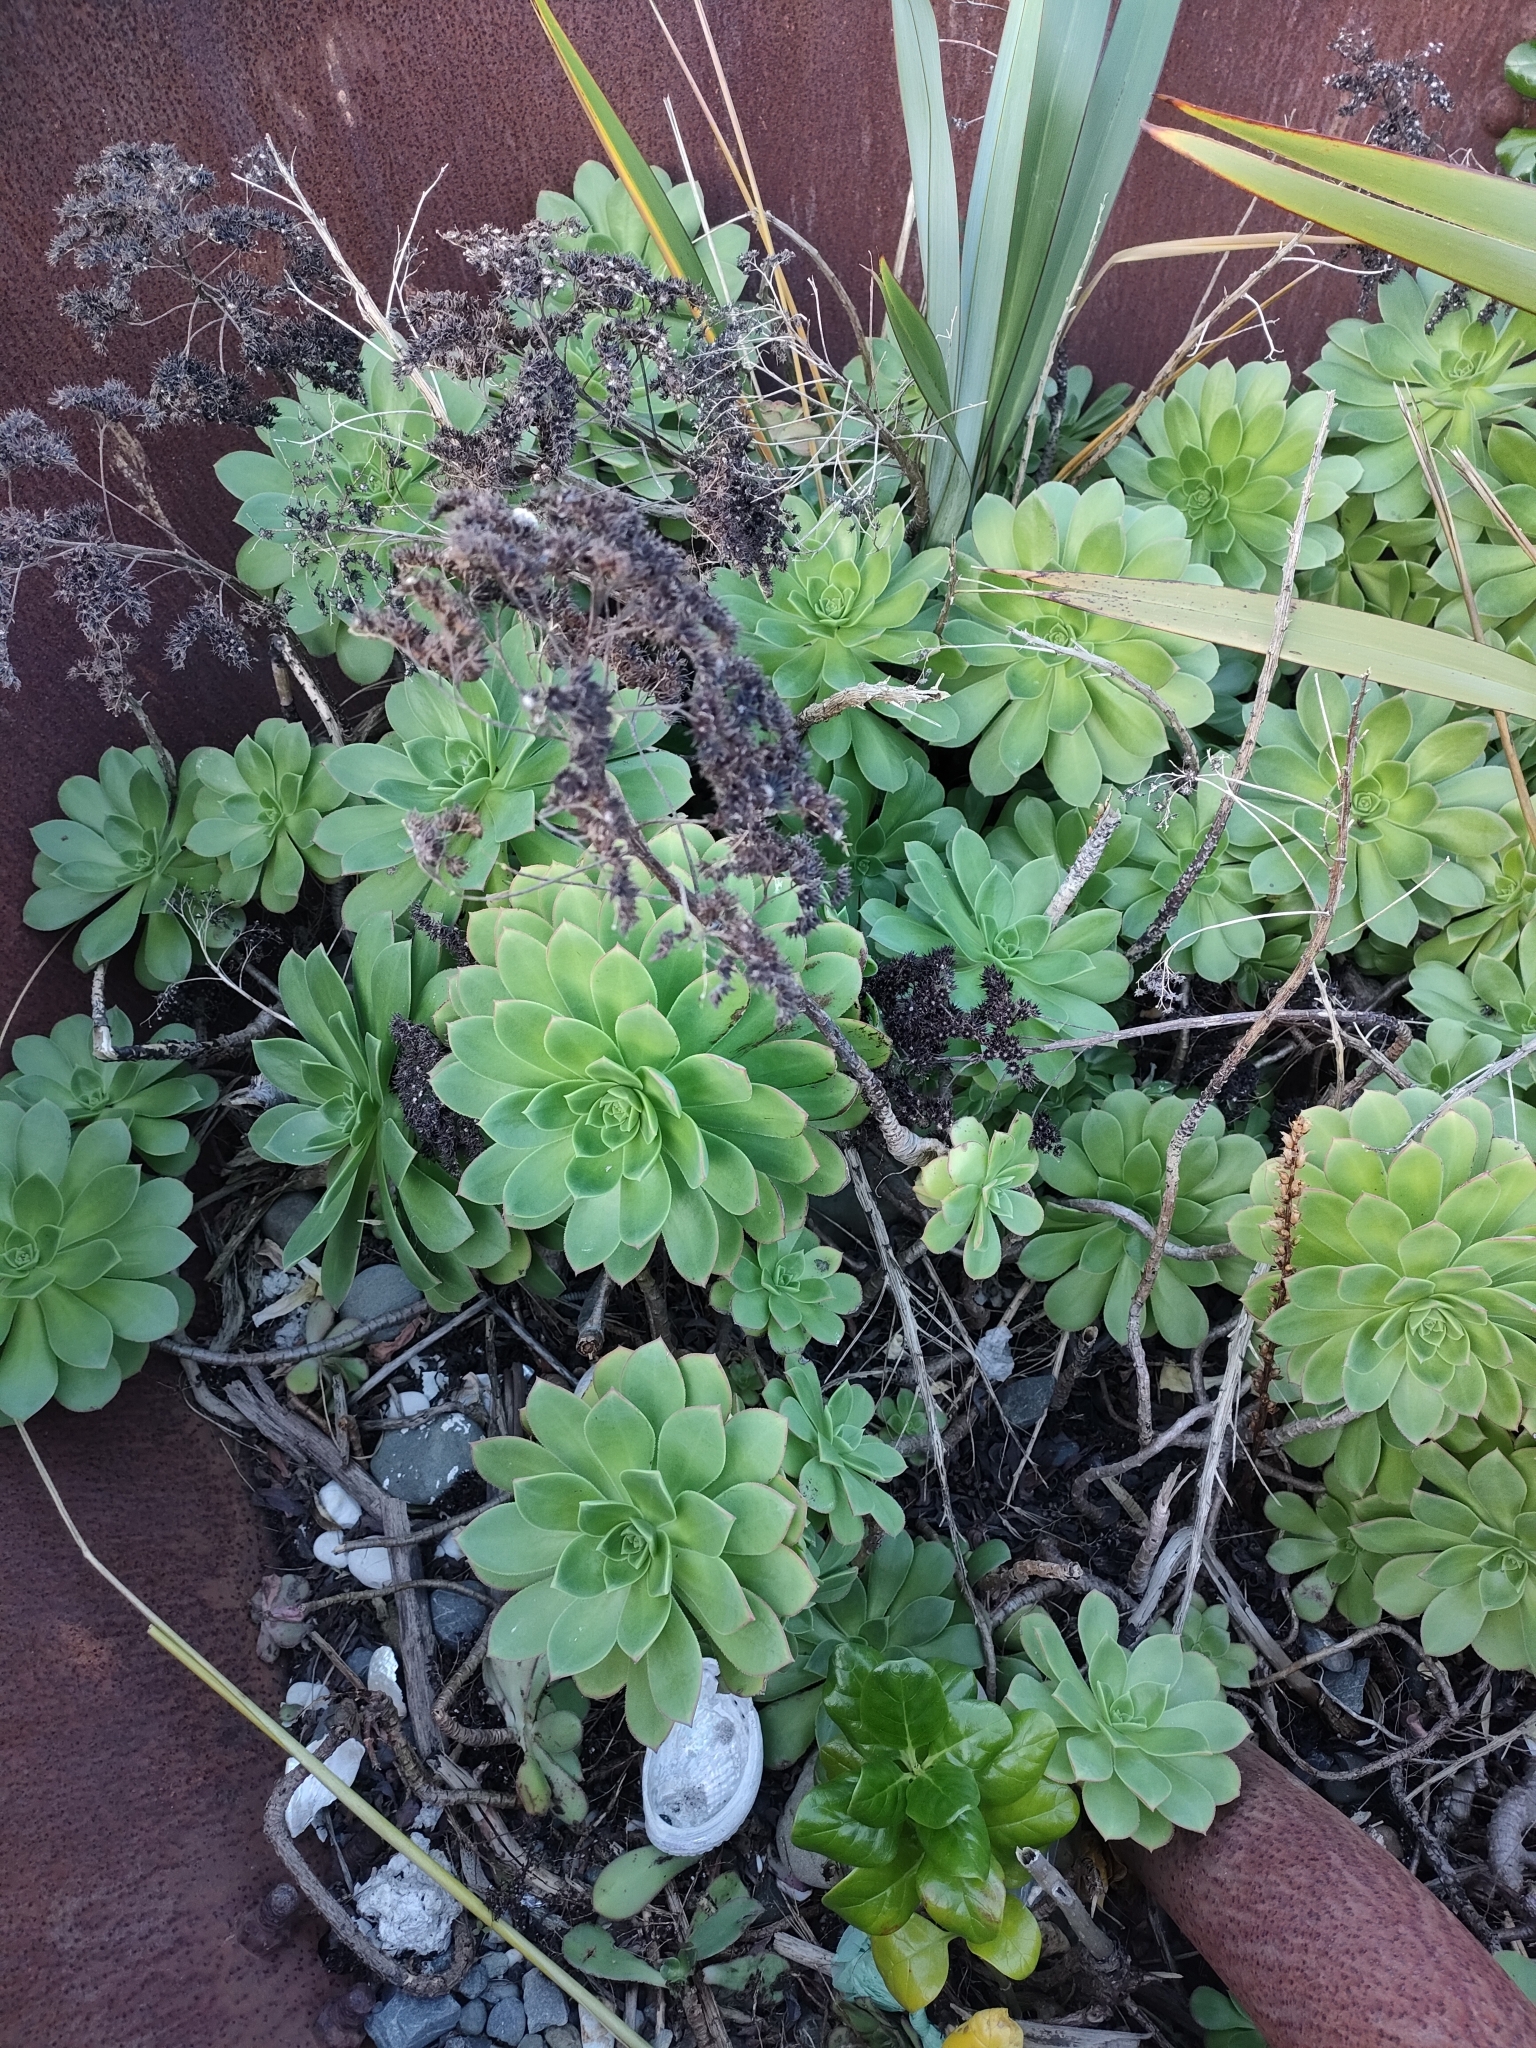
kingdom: Plantae
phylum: Tracheophyta
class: Magnoliopsida
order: Saxifragales
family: Crassulaceae
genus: Aeonium
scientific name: Aeonium arboreum
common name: Tree aeonium
